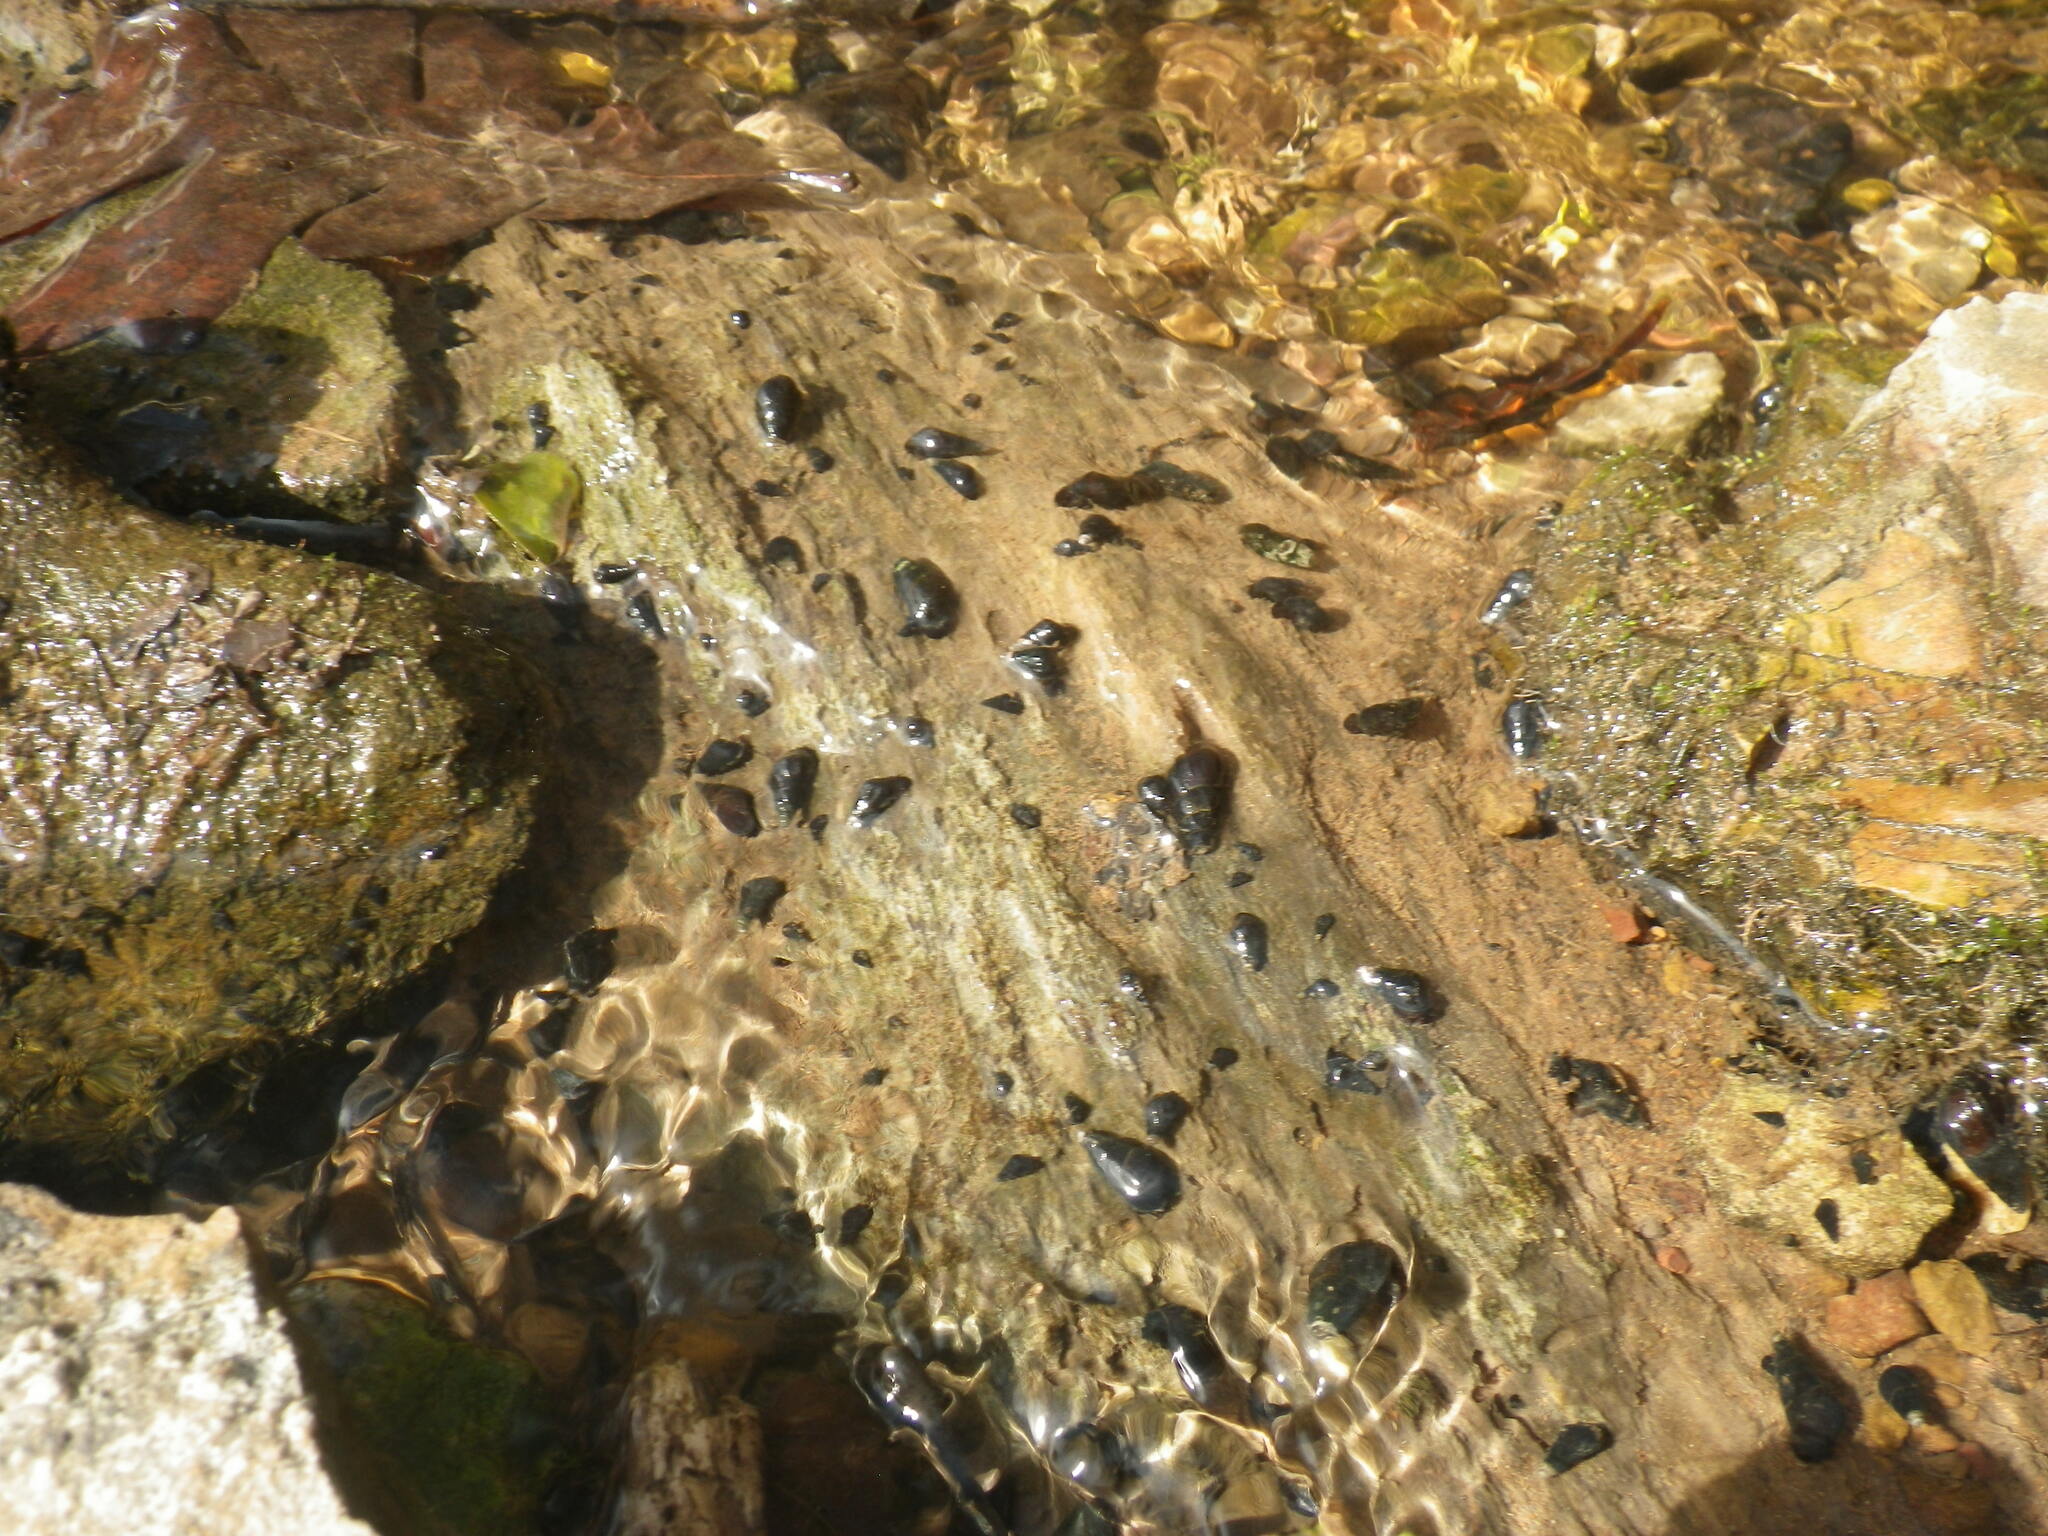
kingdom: Animalia
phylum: Mollusca
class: Gastropoda
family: Pleuroceridae
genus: Elimia
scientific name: Elimia laqueata
